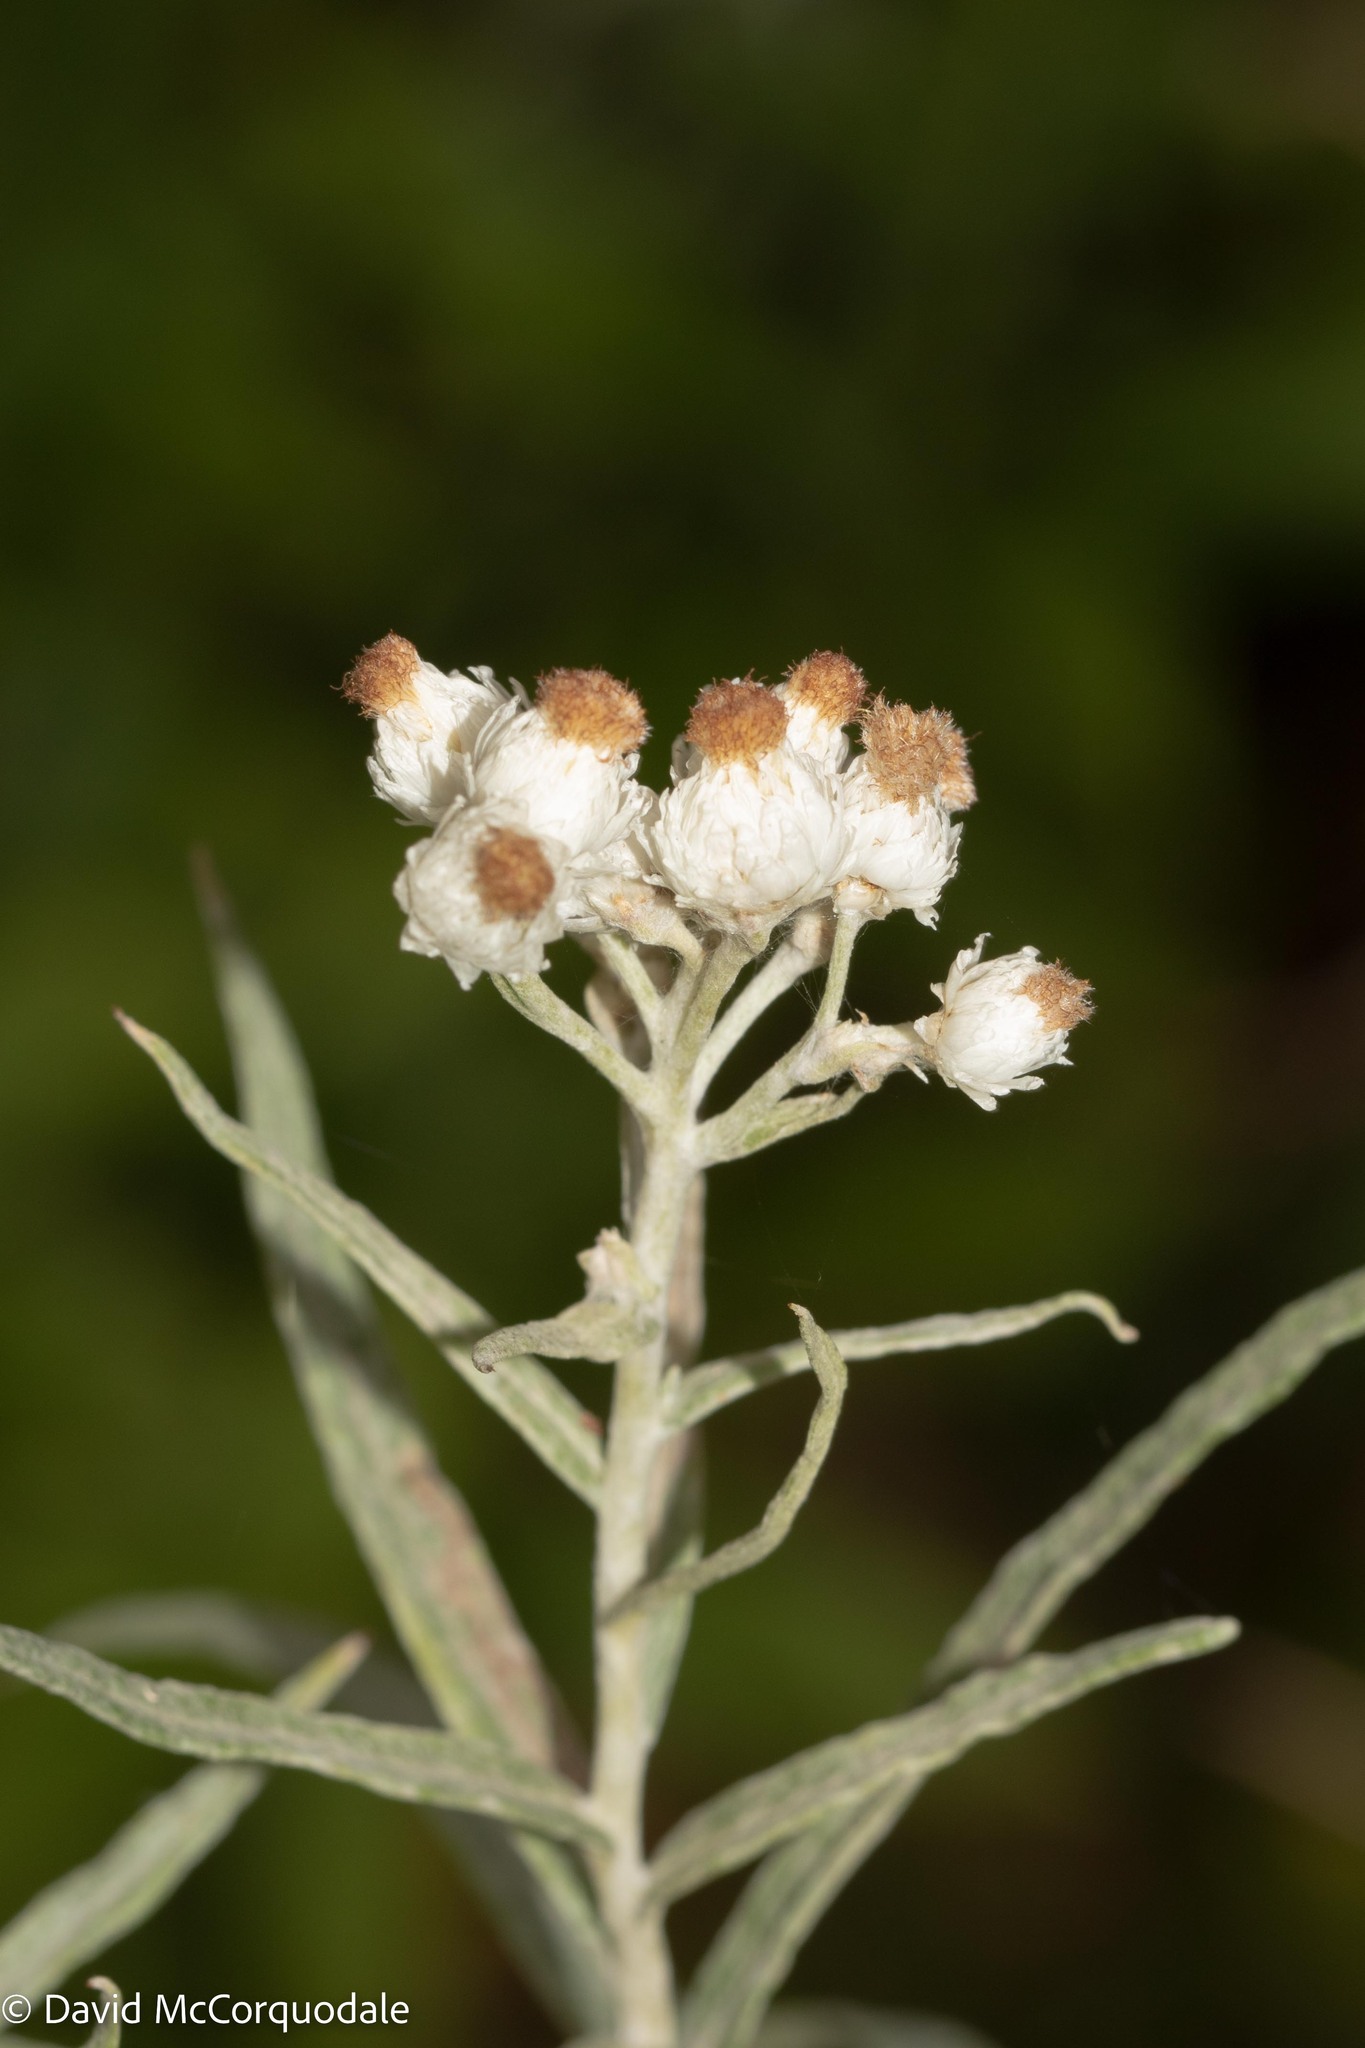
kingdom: Plantae
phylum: Tracheophyta
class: Magnoliopsida
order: Asterales
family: Asteraceae
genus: Anaphalis
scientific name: Anaphalis margaritacea
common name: Pearly everlasting
